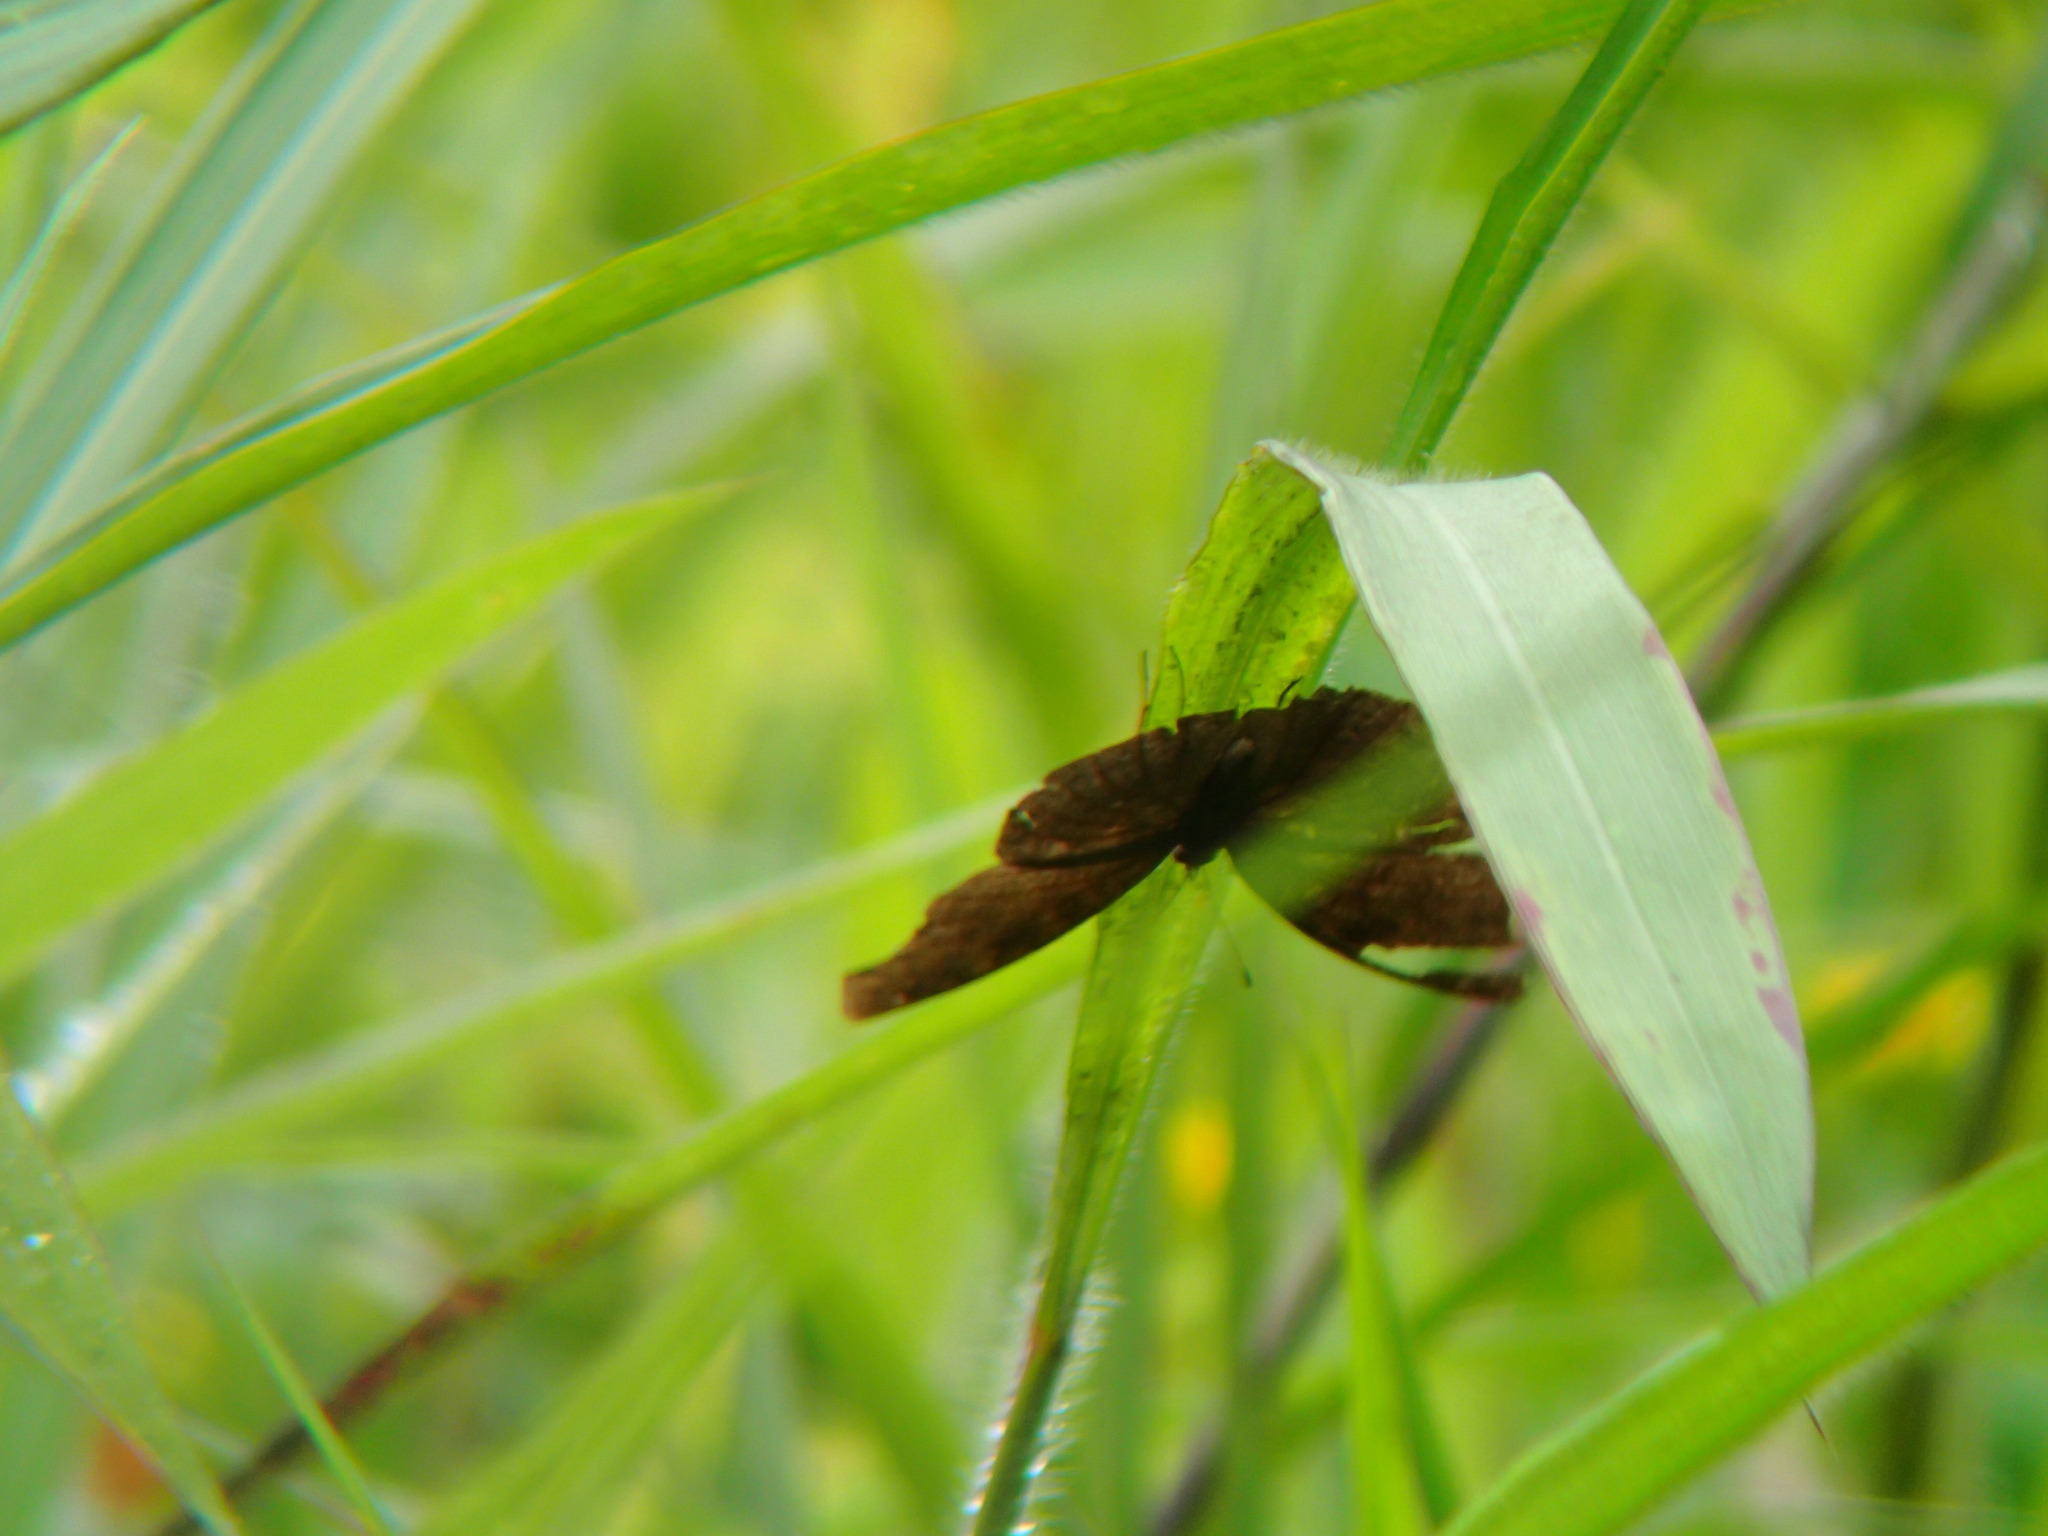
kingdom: Animalia
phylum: Arthropoda
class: Insecta
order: Lepidoptera
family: Nymphalidae
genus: Junonia
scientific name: Junonia iphita
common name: Chocolate pansy
